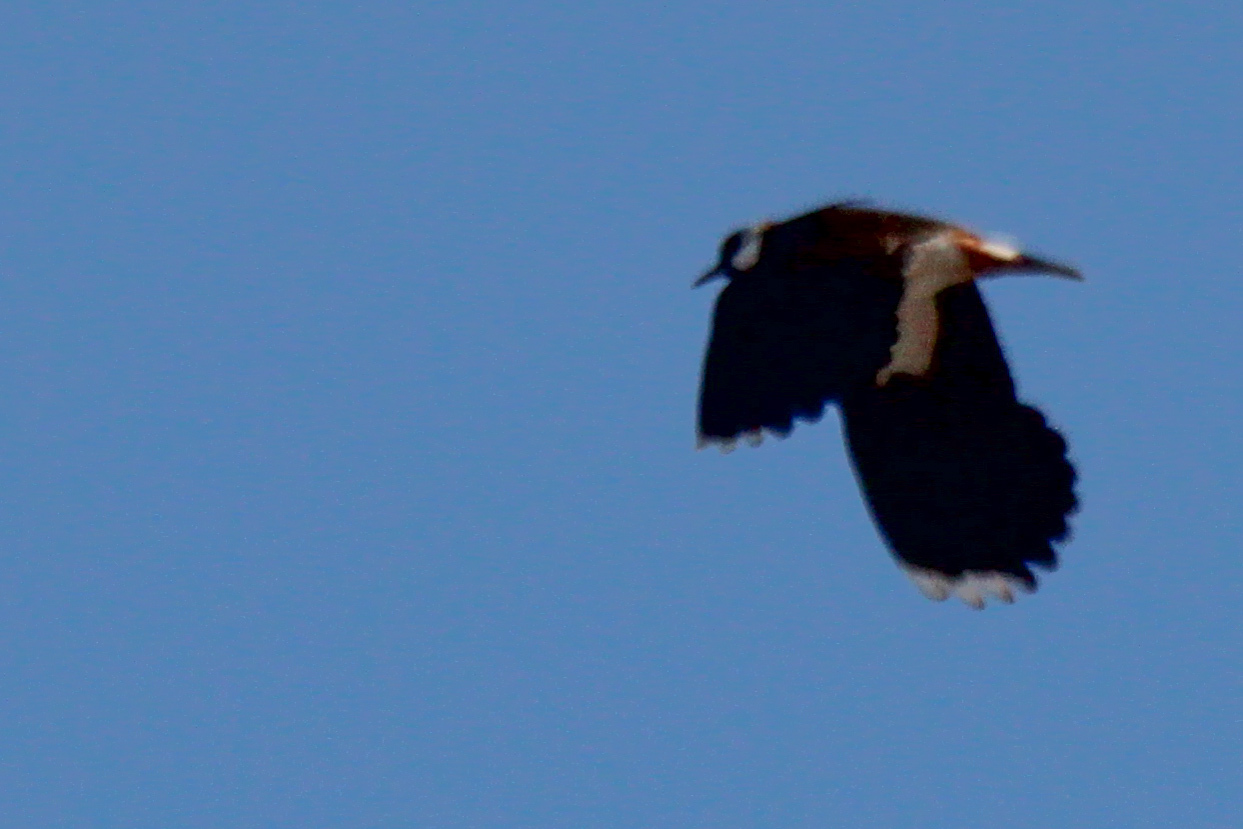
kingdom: Animalia
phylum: Chordata
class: Aves
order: Charadriiformes
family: Charadriidae
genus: Vanellus
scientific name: Vanellus vanellus
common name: Northern lapwing
